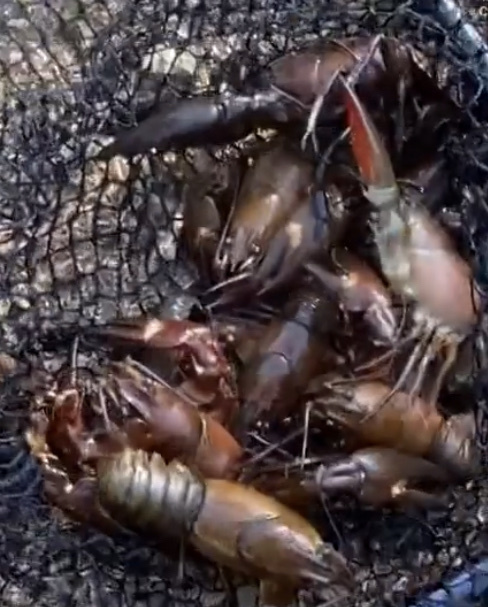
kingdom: Animalia
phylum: Arthropoda
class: Malacostraca
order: Decapoda
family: Astacidae
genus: Pacifastacus
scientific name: Pacifastacus leniusculus
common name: Signal crayfish
